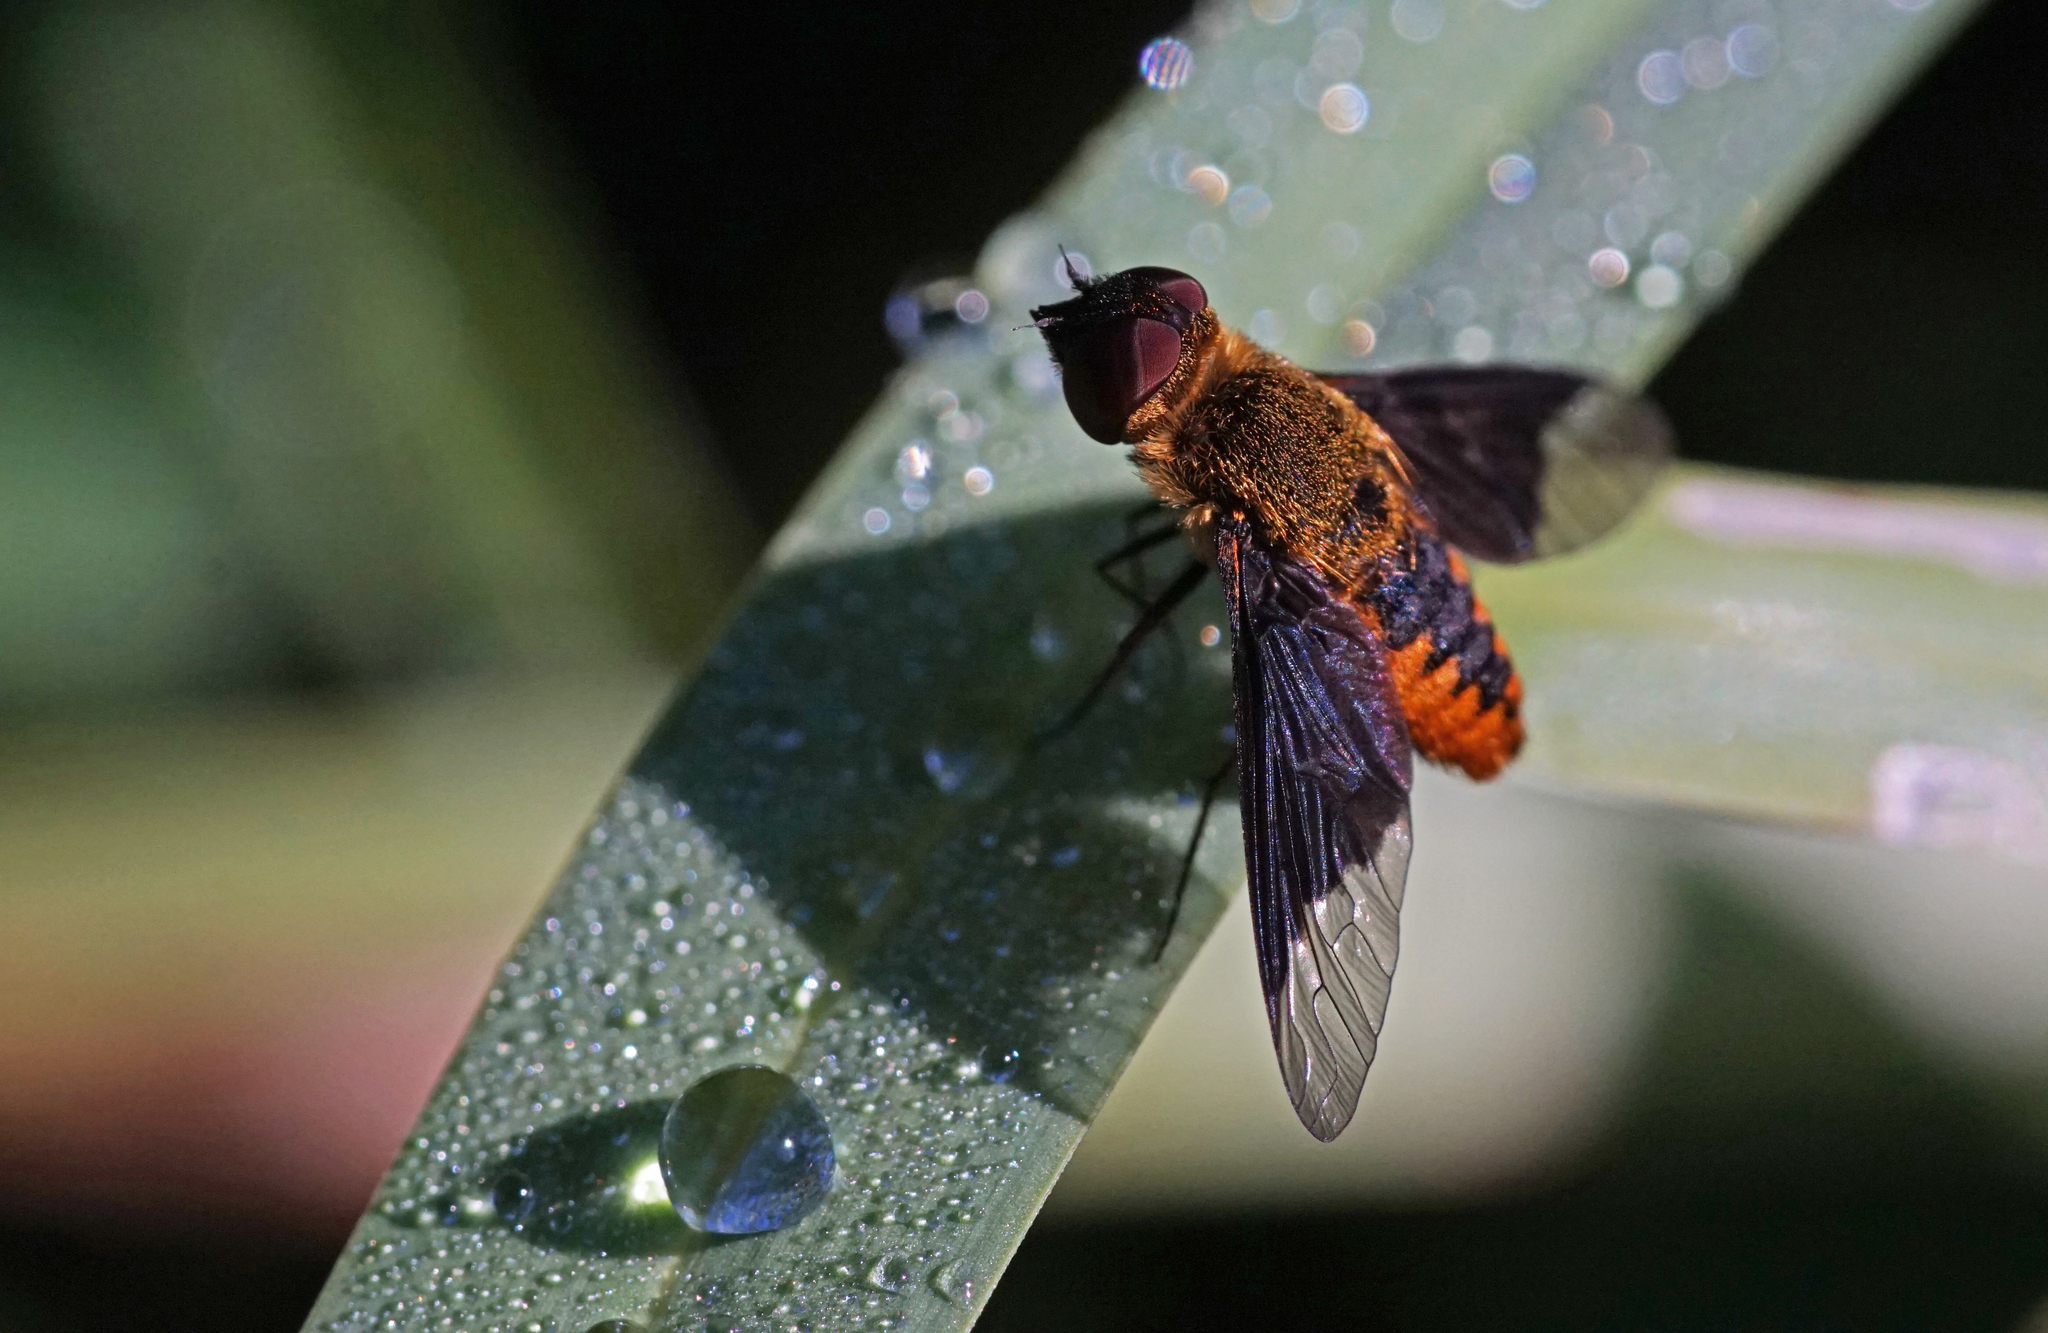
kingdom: Animalia
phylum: Arthropoda
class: Insecta
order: Diptera
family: Bombyliidae
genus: Chrysanthrax
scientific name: Chrysanthrax cypris
